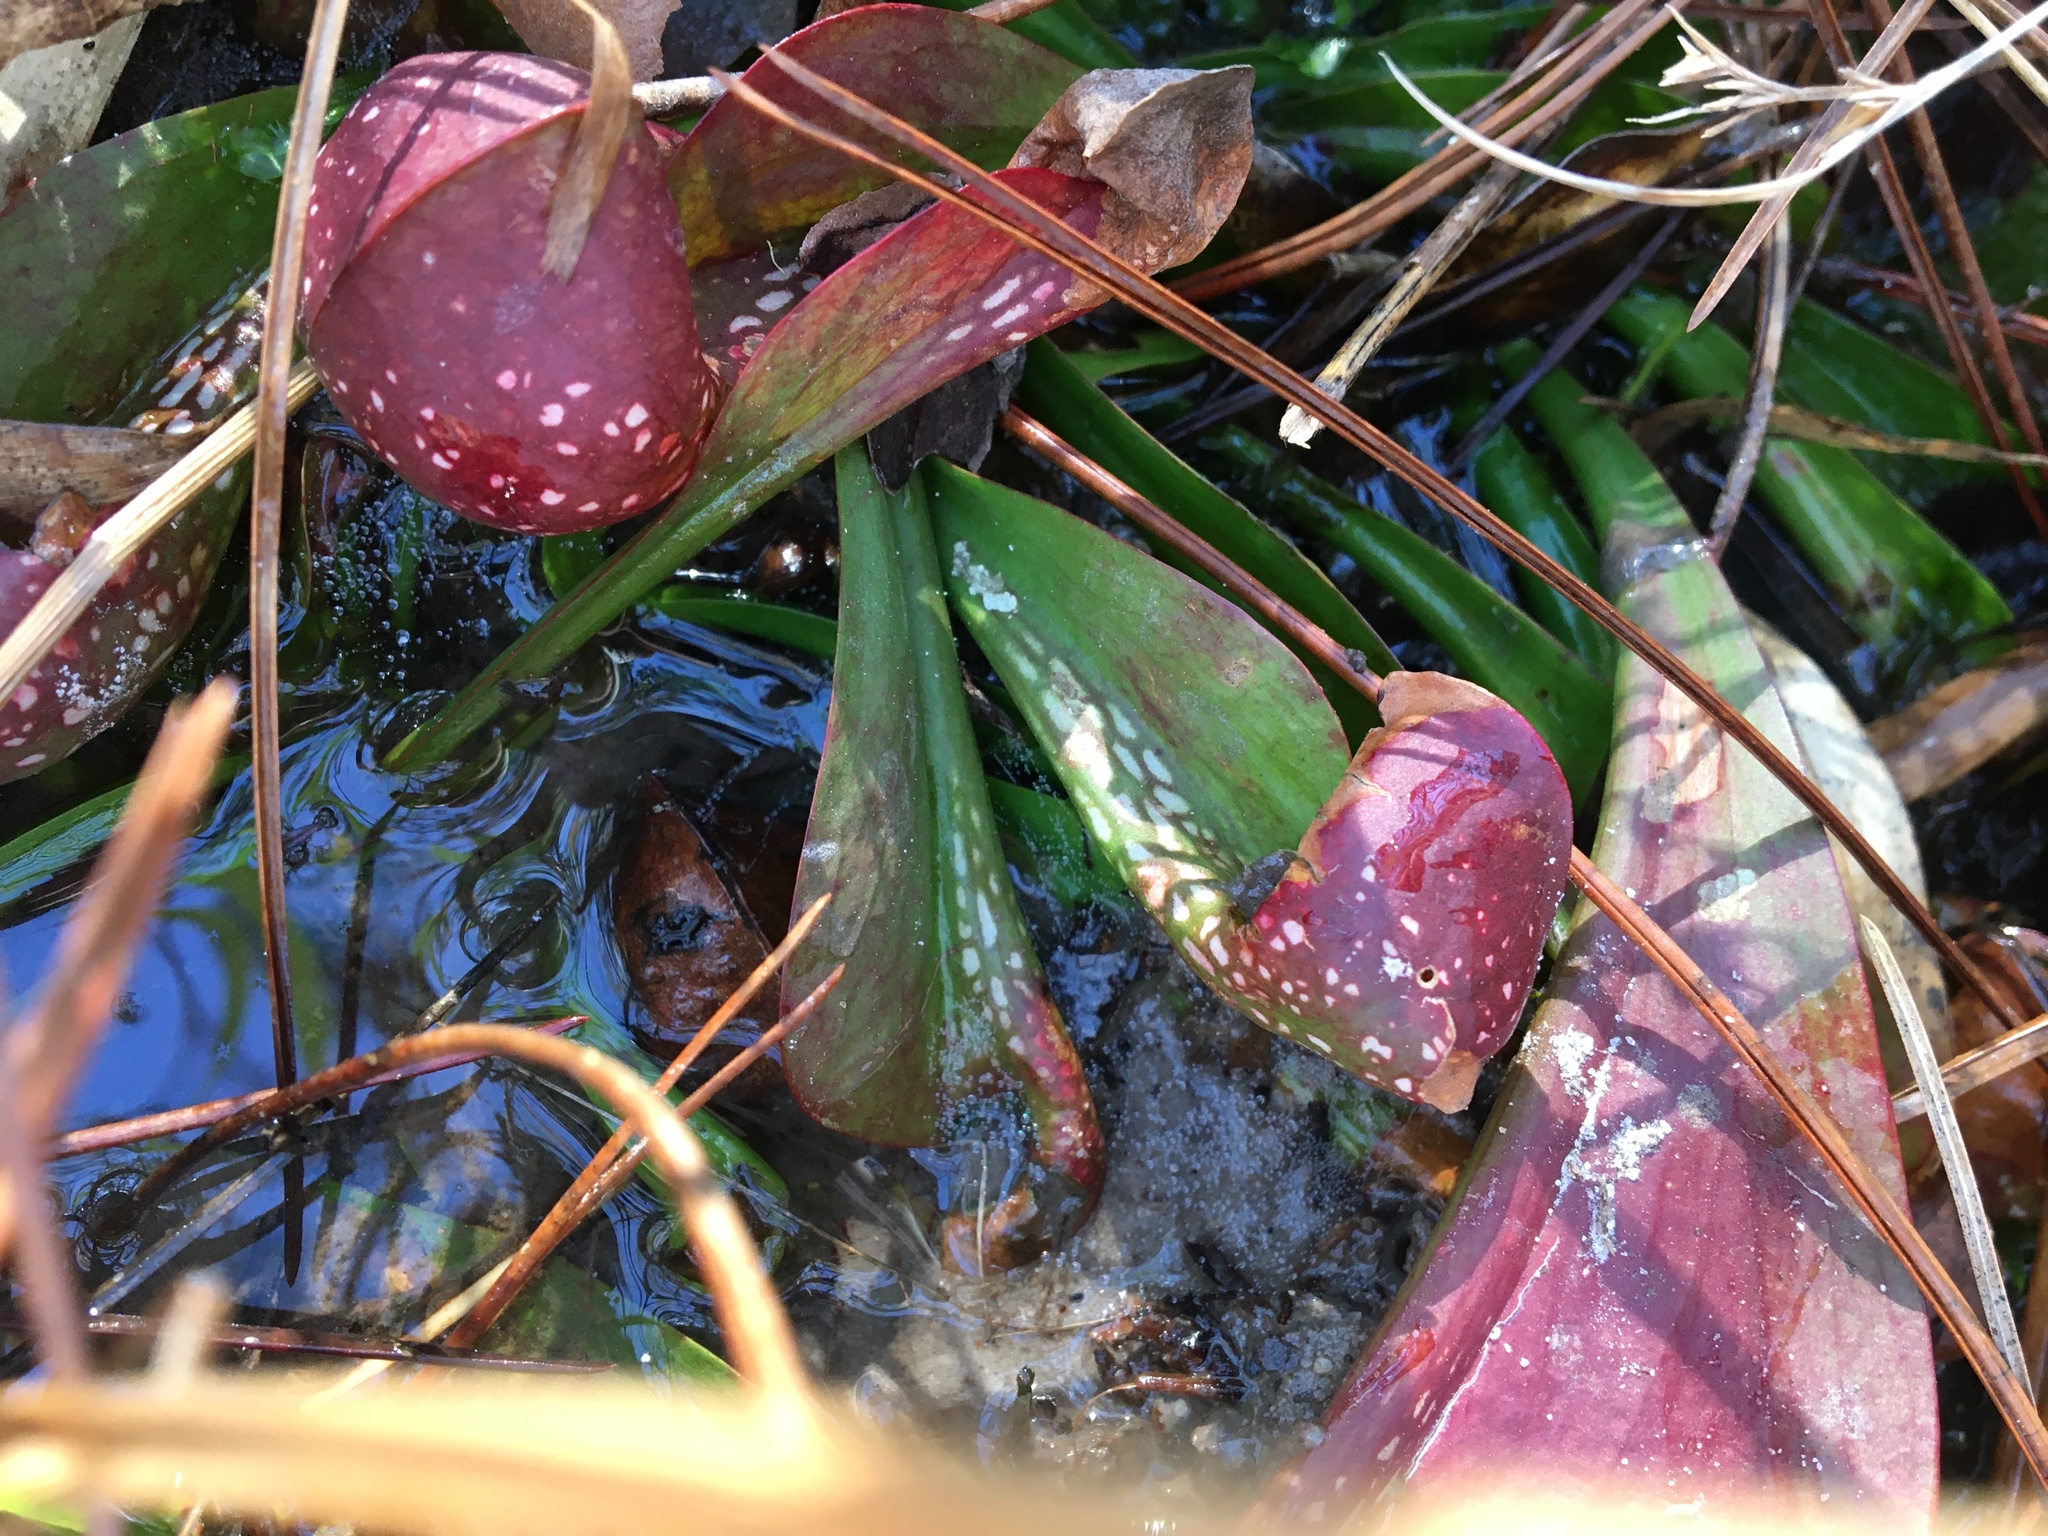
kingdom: Plantae
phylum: Tracheophyta
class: Magnoliopsida
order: Ericales
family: Sarraceniaceae
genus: Sarracenia
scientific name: Sarracenia psittacina
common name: Parrot pitcherplant
